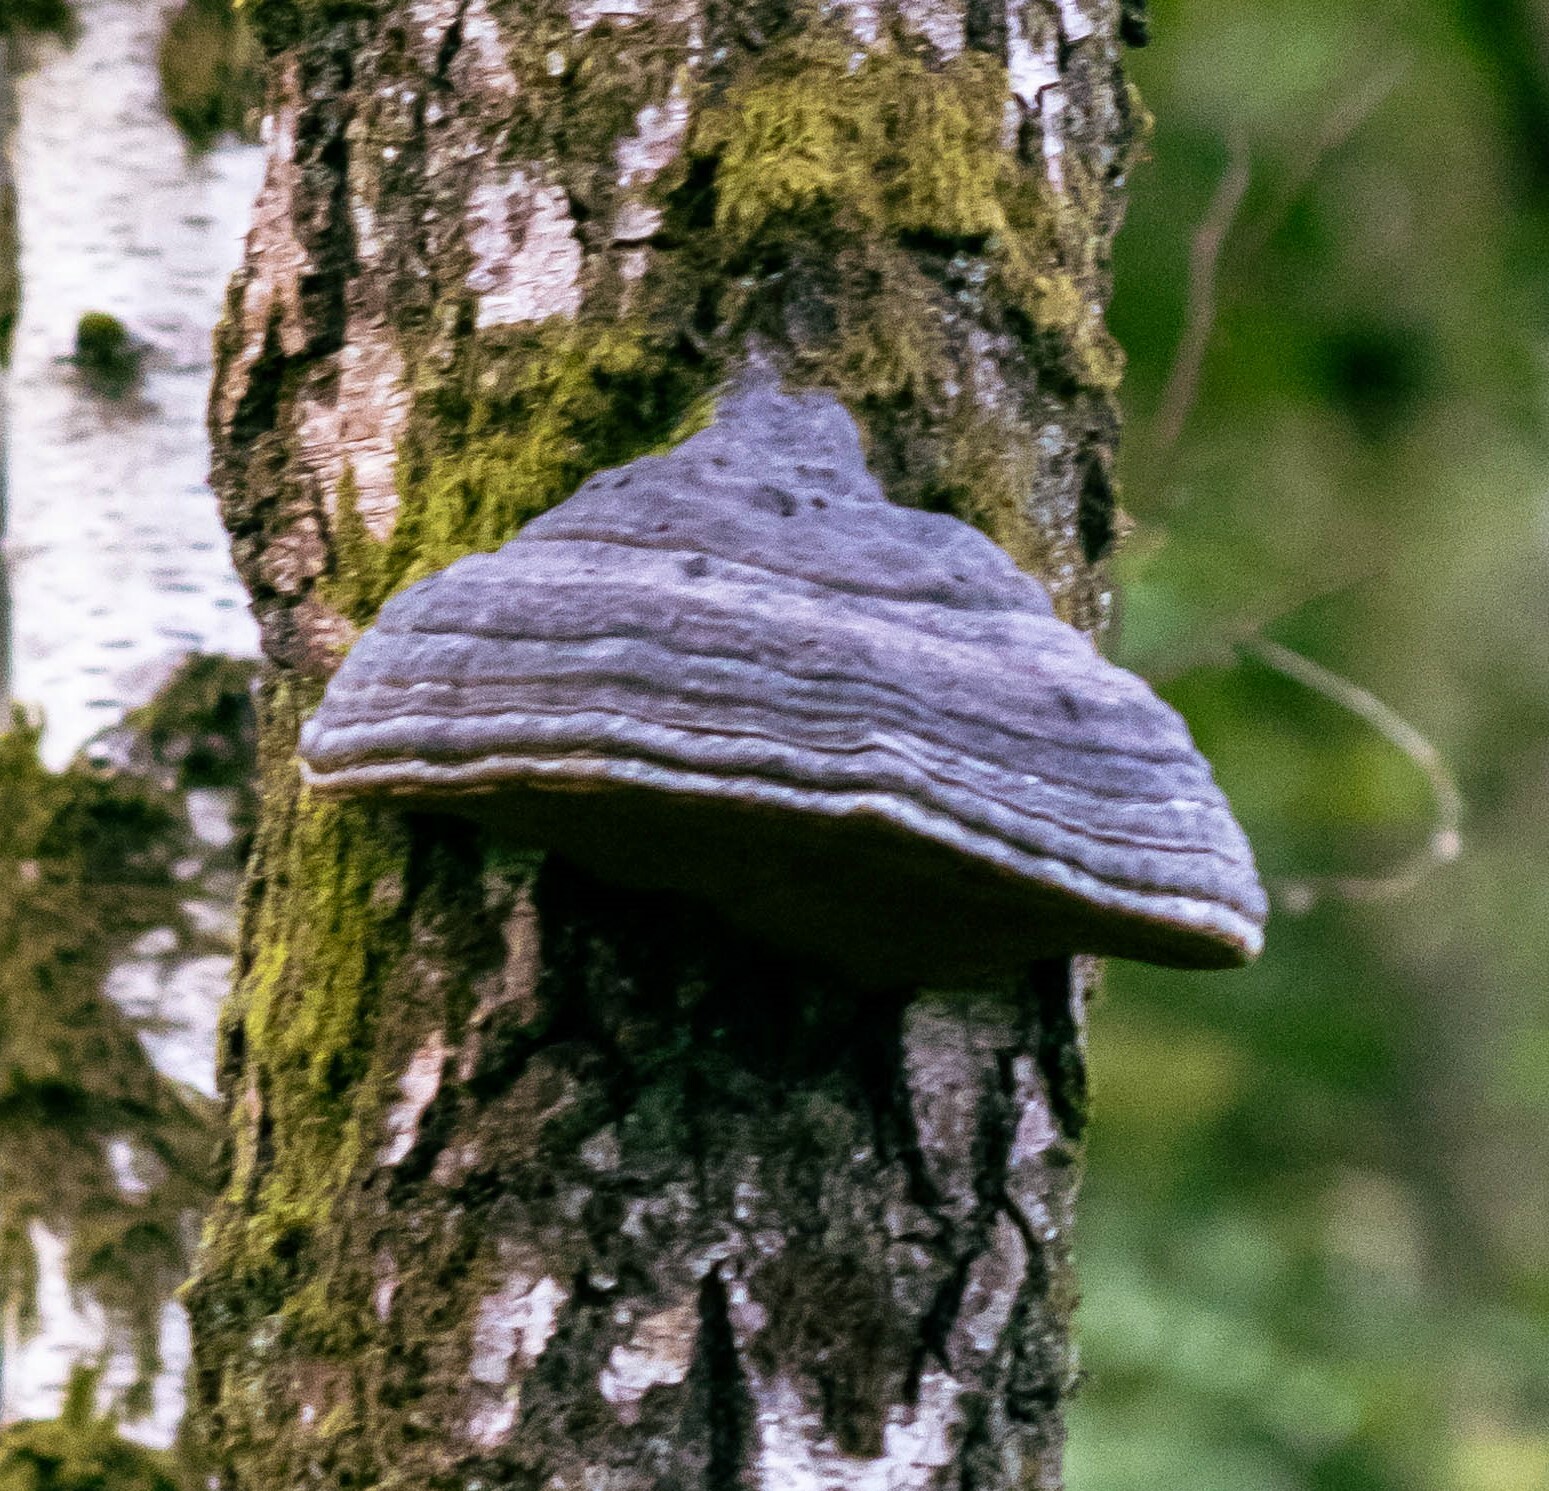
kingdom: Fungi
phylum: Basidiomycota
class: Agaricomycetes
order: Polyporales
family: Polyporaceae
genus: Fomes
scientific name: Fomes fomentarius
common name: Hoof fungus
